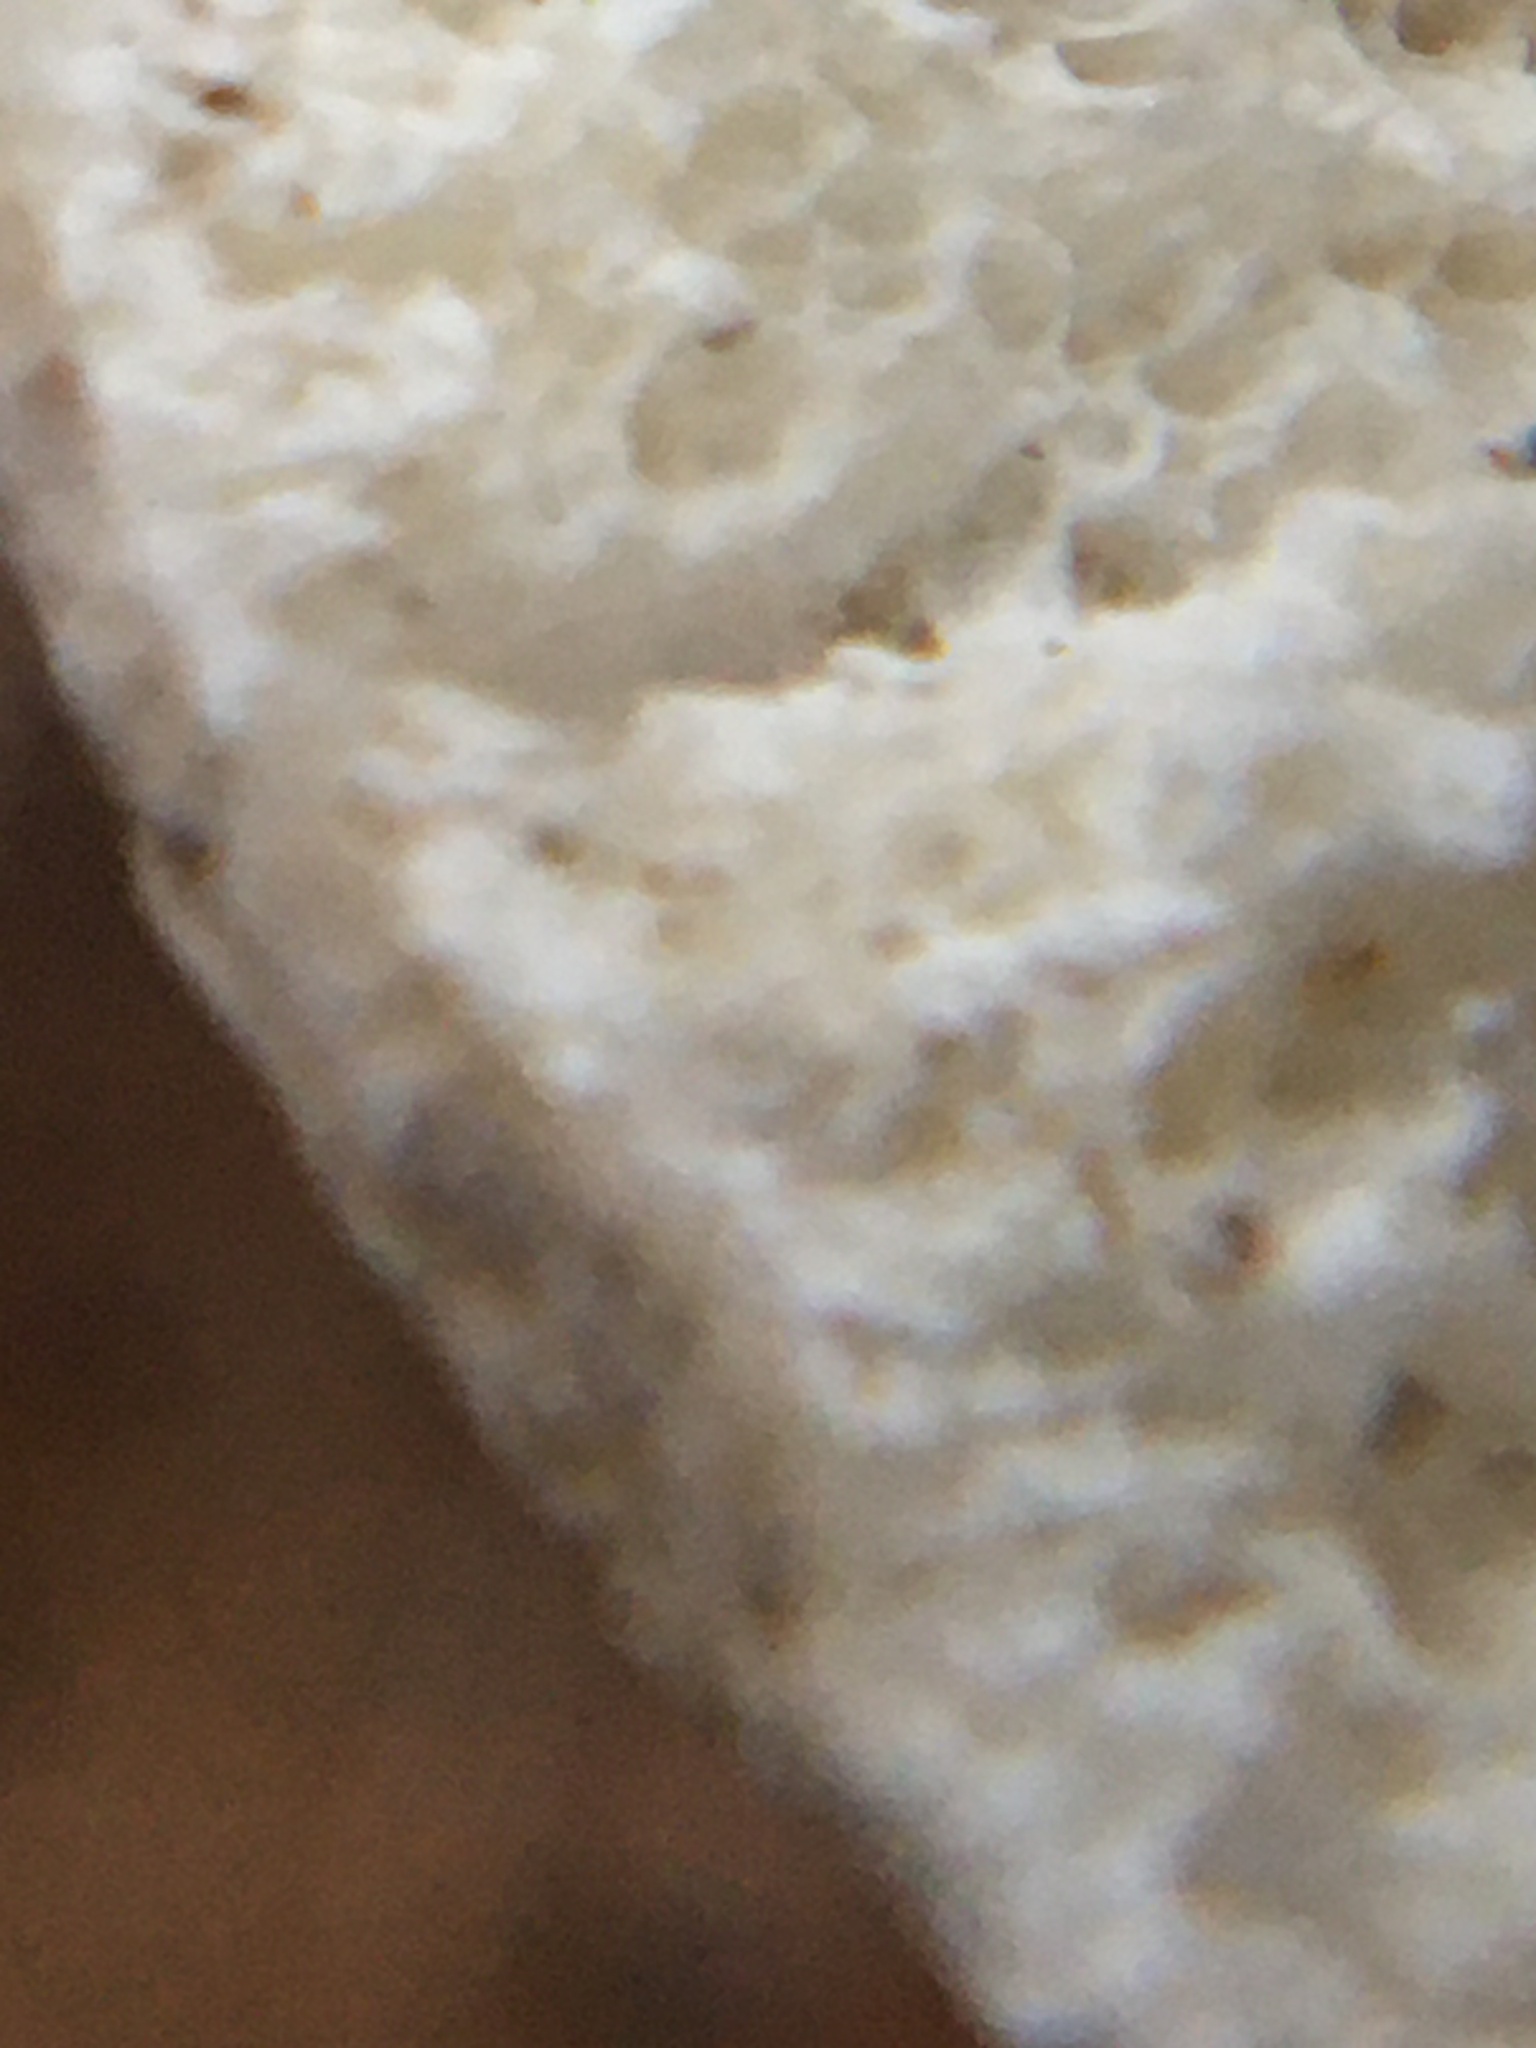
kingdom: Fungi
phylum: Basidiomycota
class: Agaricomycetes
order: Polyporales
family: Polyporaceae
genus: Poronidulus
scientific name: Poronidulus conchifer
